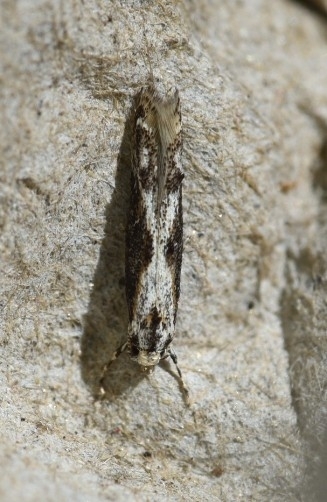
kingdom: Animalia
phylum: Arthropoda
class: Insecta
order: Lepidoptera
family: Elachistidae
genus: Blastodacna
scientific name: Blastodacna hellerella
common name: Hawthorn cosmet
